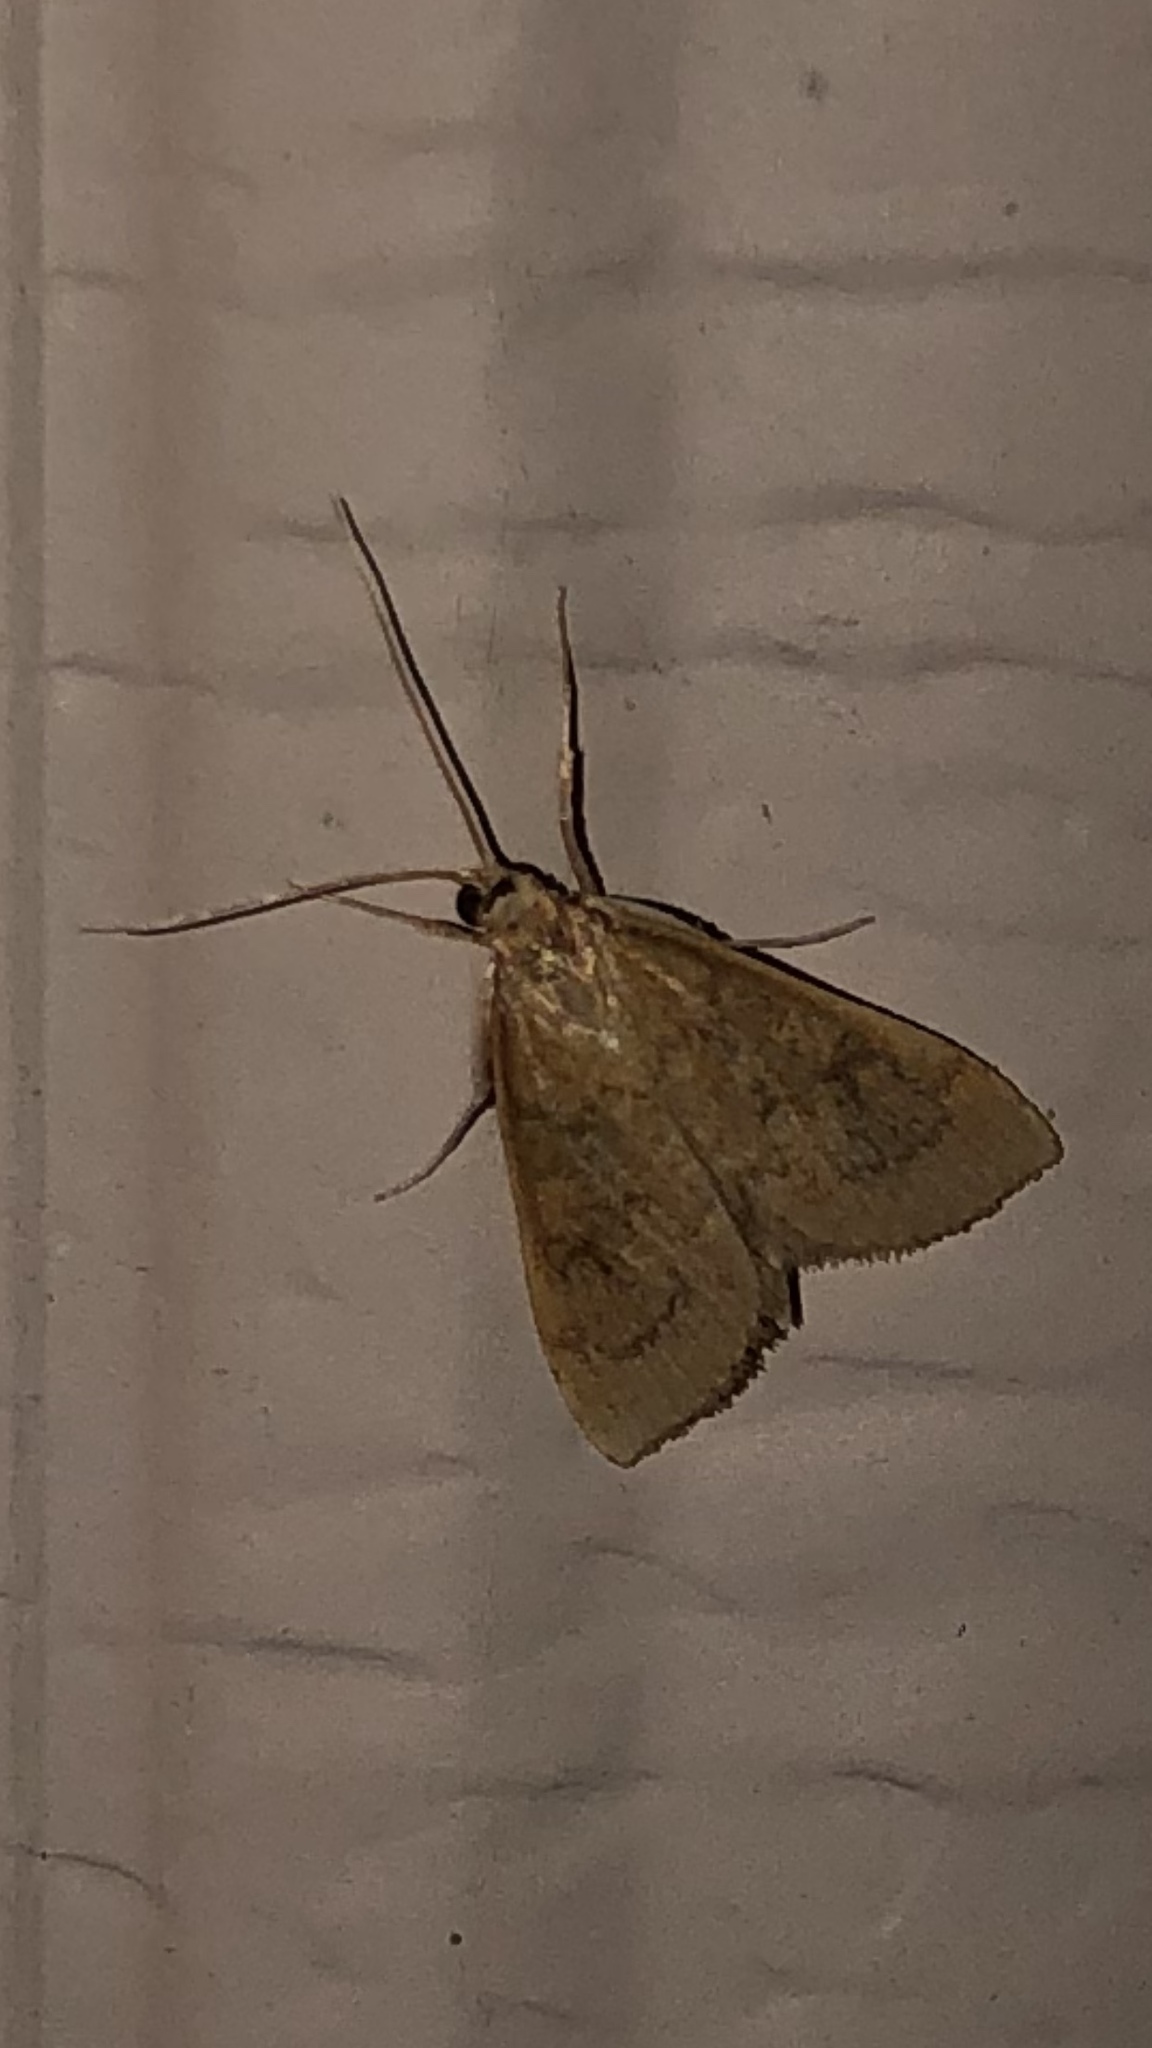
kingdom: Animalia
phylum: Arthropoda
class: Insecta
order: Lepidoptera
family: Crambidae
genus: Udea
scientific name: Udea rubigalis
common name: Celery leaftier moth
